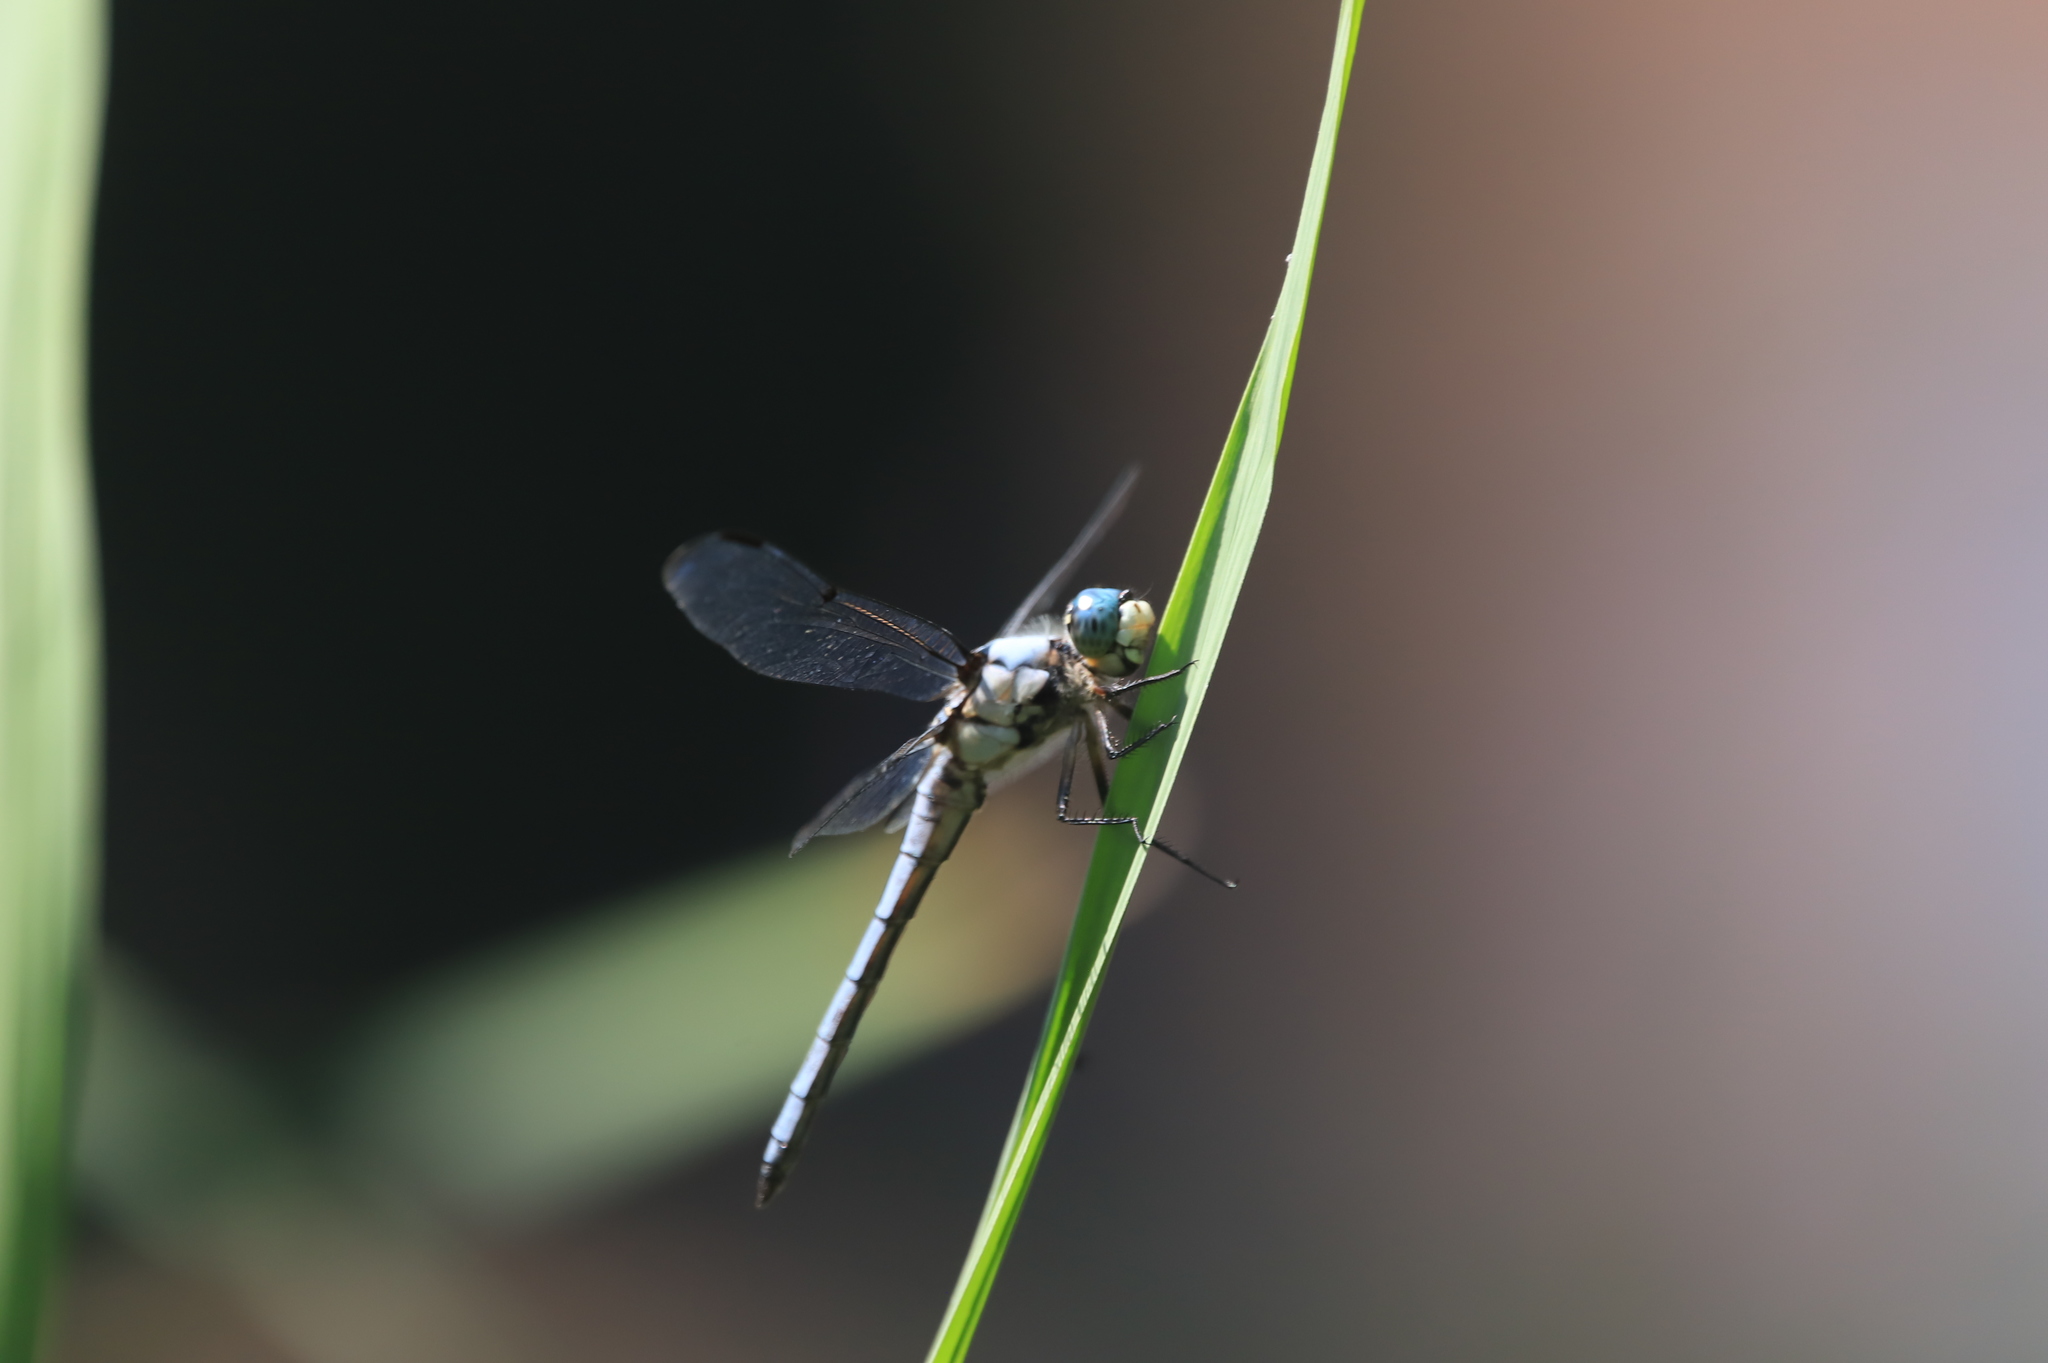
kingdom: Animalia
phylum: Arthropoda
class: Insecta
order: Odonata
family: Libellulidae
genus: Libellula
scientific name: Libellula vibrans
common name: Great blue skimmer
